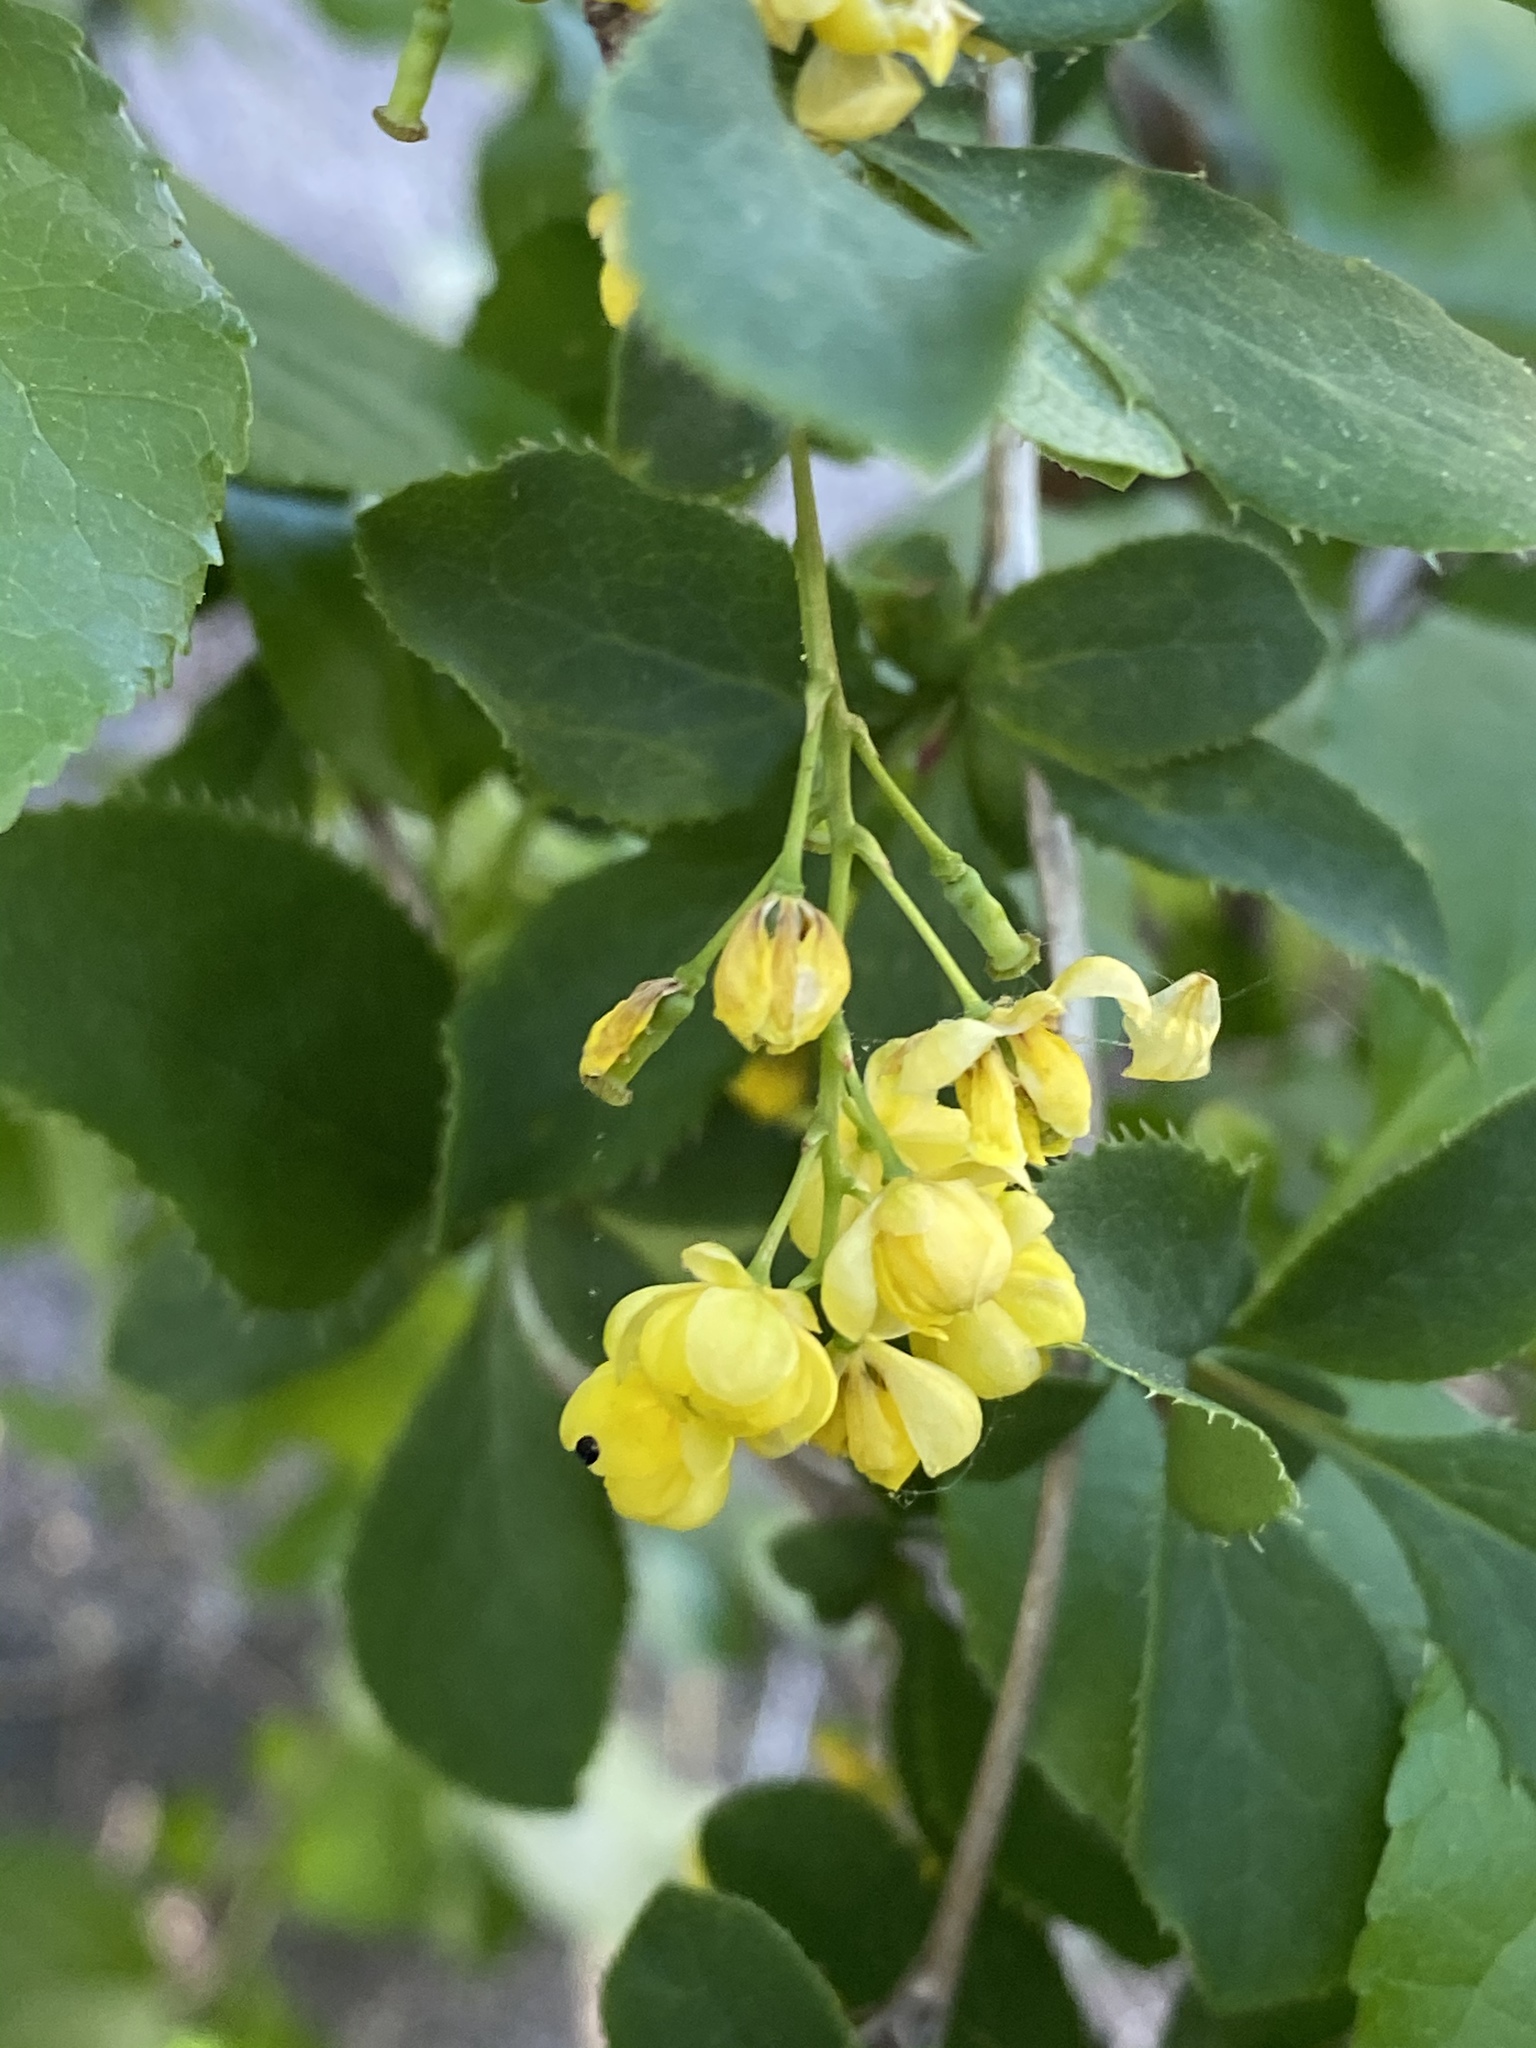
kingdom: Plantae
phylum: Tracheophyta
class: Magnoliopsida
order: Ranunculales
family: Berberidaceae
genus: Berberis
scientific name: Berberis vulgaris
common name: Barberry
